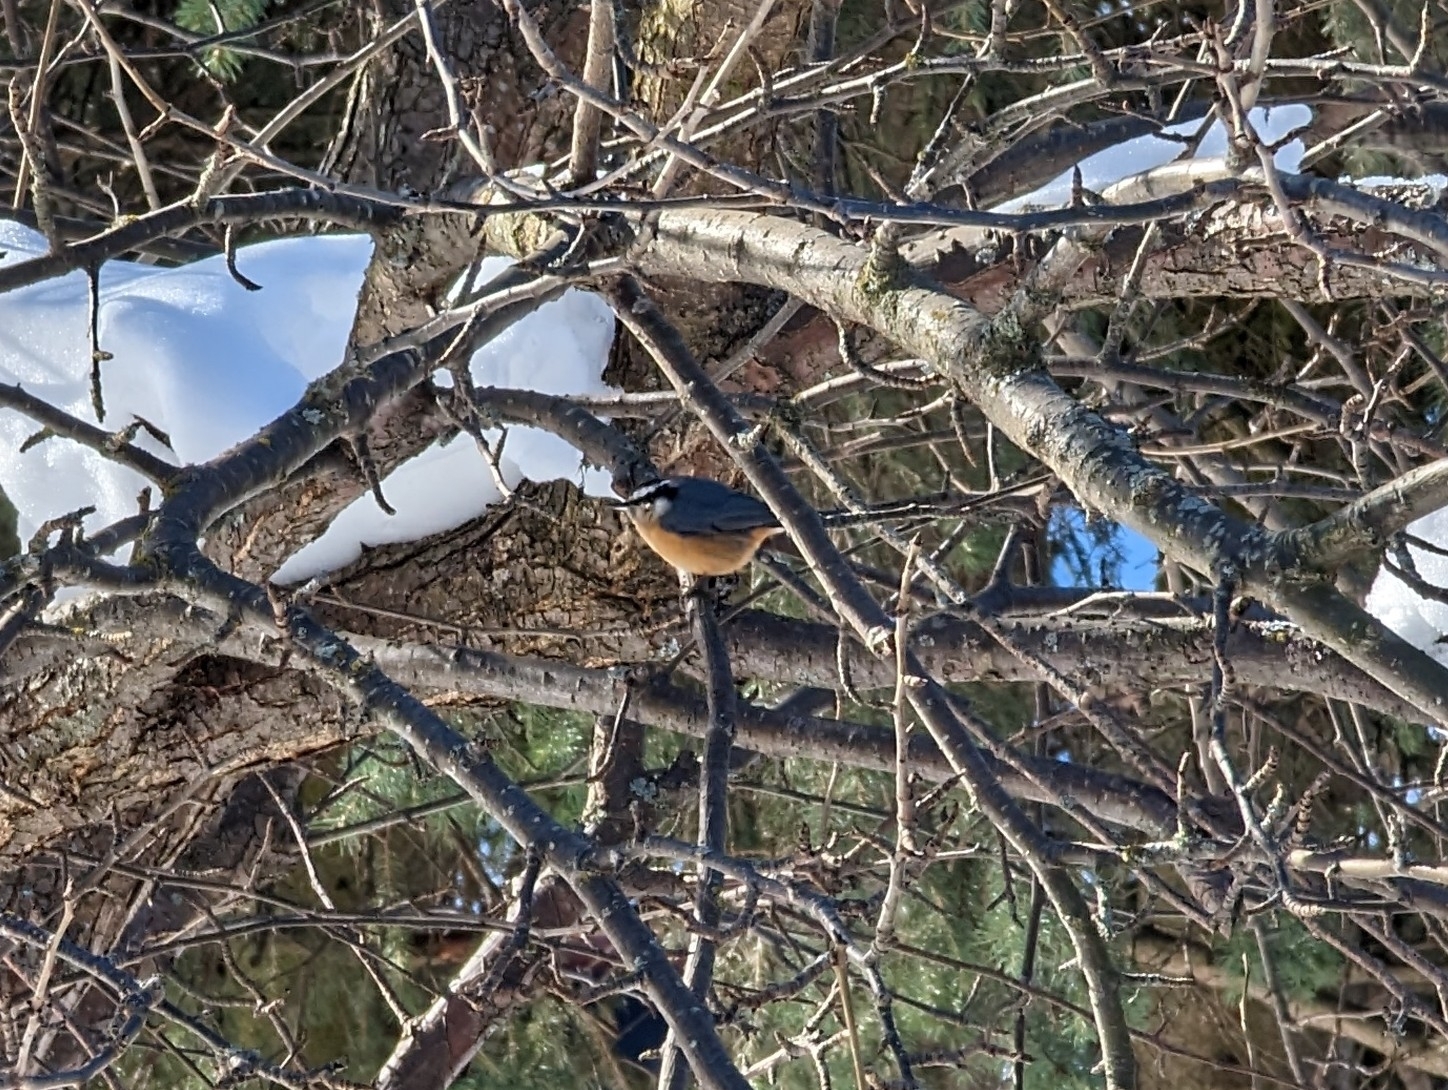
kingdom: Animalia
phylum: Chordata
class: Aves
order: Passeriformes
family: Sittidae
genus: Sitta
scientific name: Sitta canadensis
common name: Red-breasted nuthatch
